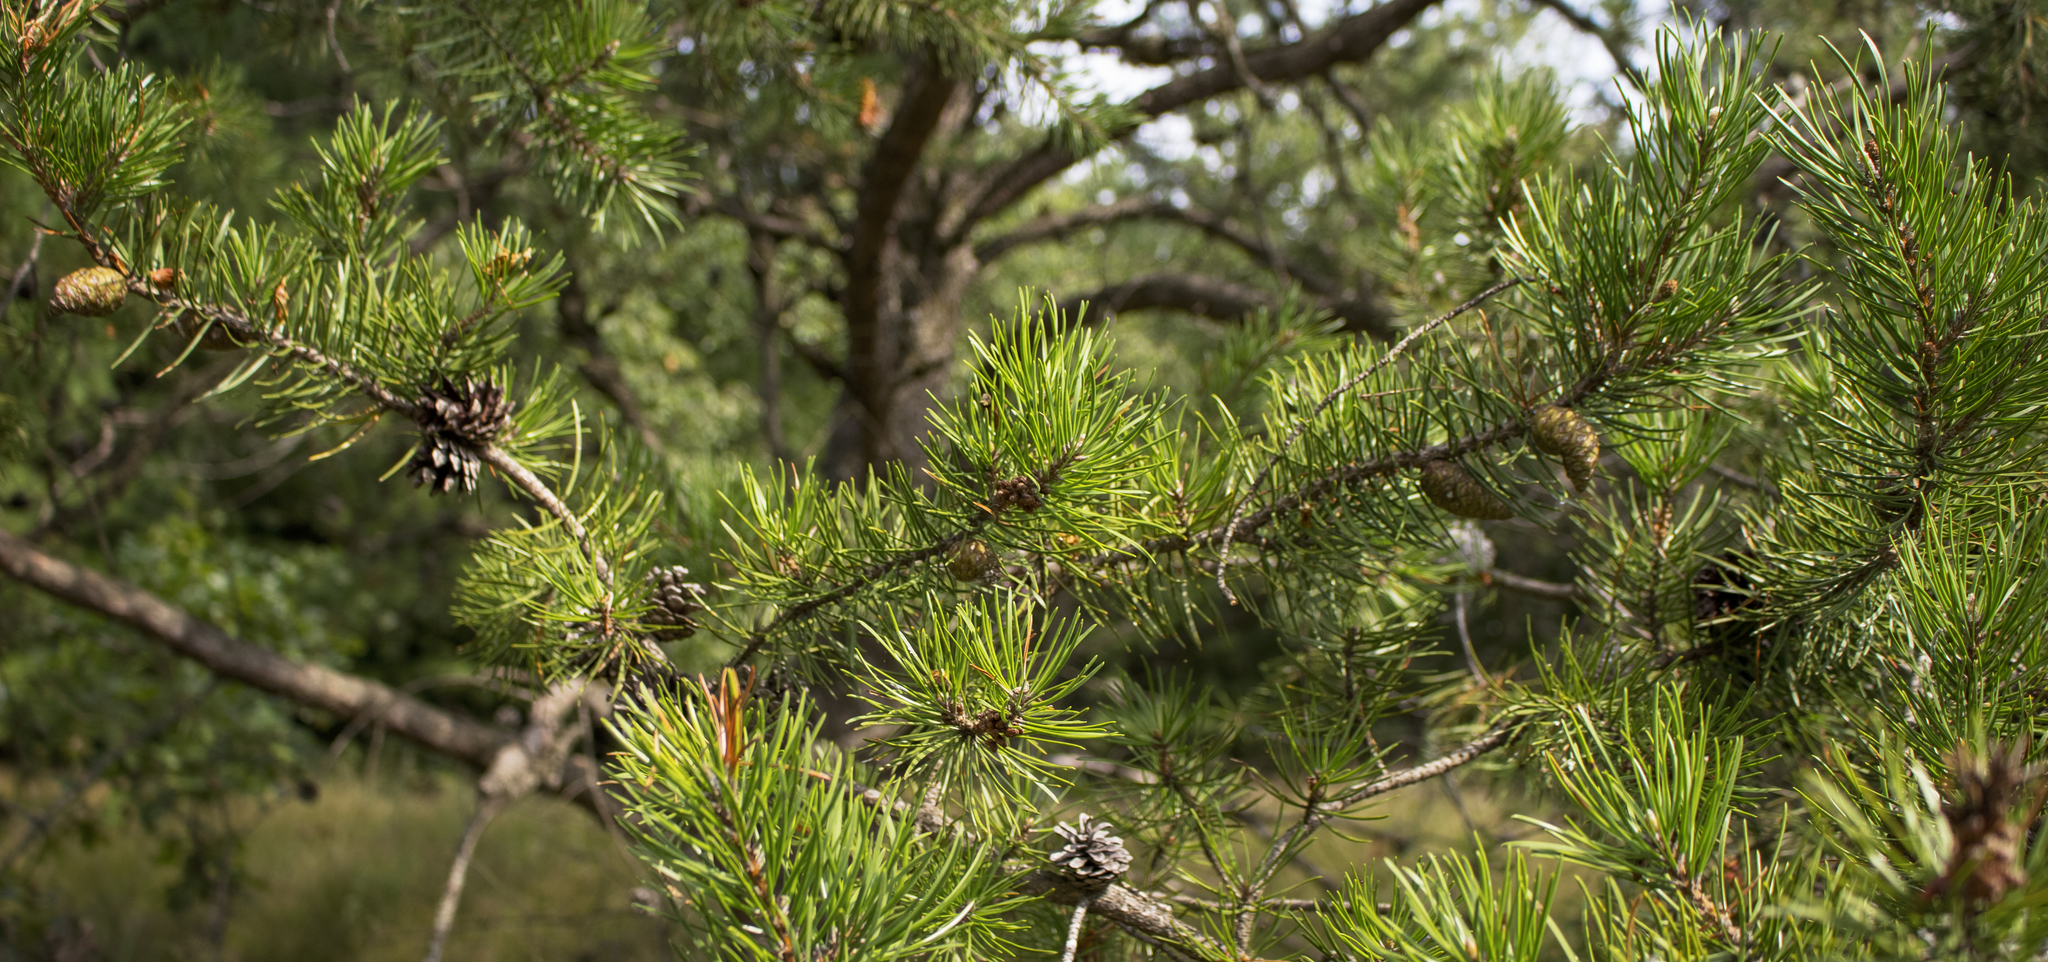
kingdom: Plantae
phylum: Tracheophyta
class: Pinopsida
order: Pinales
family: Pinaceae
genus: Pinus
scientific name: Pinus banksiana
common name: Jack pine
